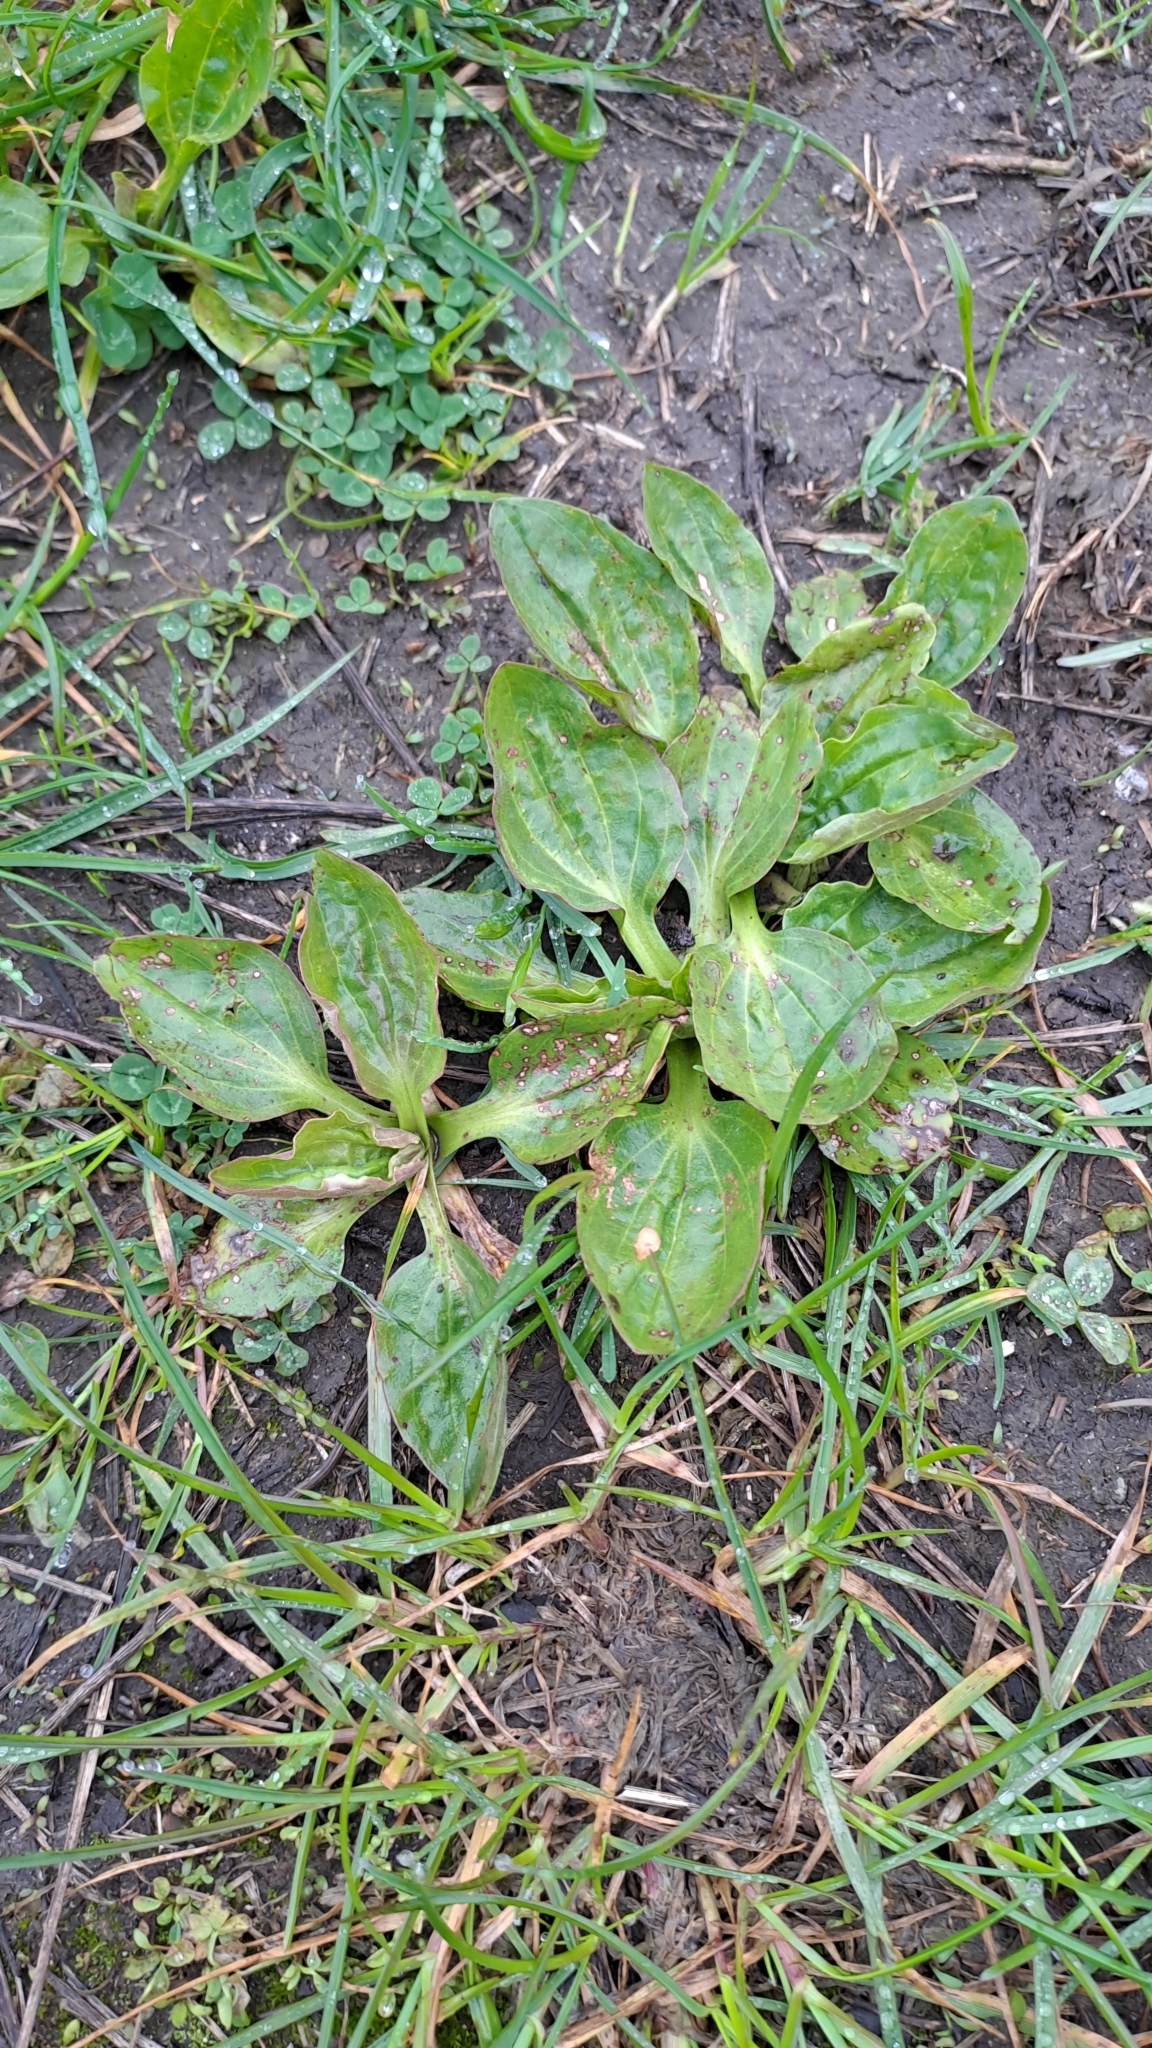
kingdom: Plantae
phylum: Tracheophyta
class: Magnoliopsida
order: Lamiales
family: Plantaginaceae
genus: Plantago
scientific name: Plantago major
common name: Common plantain
